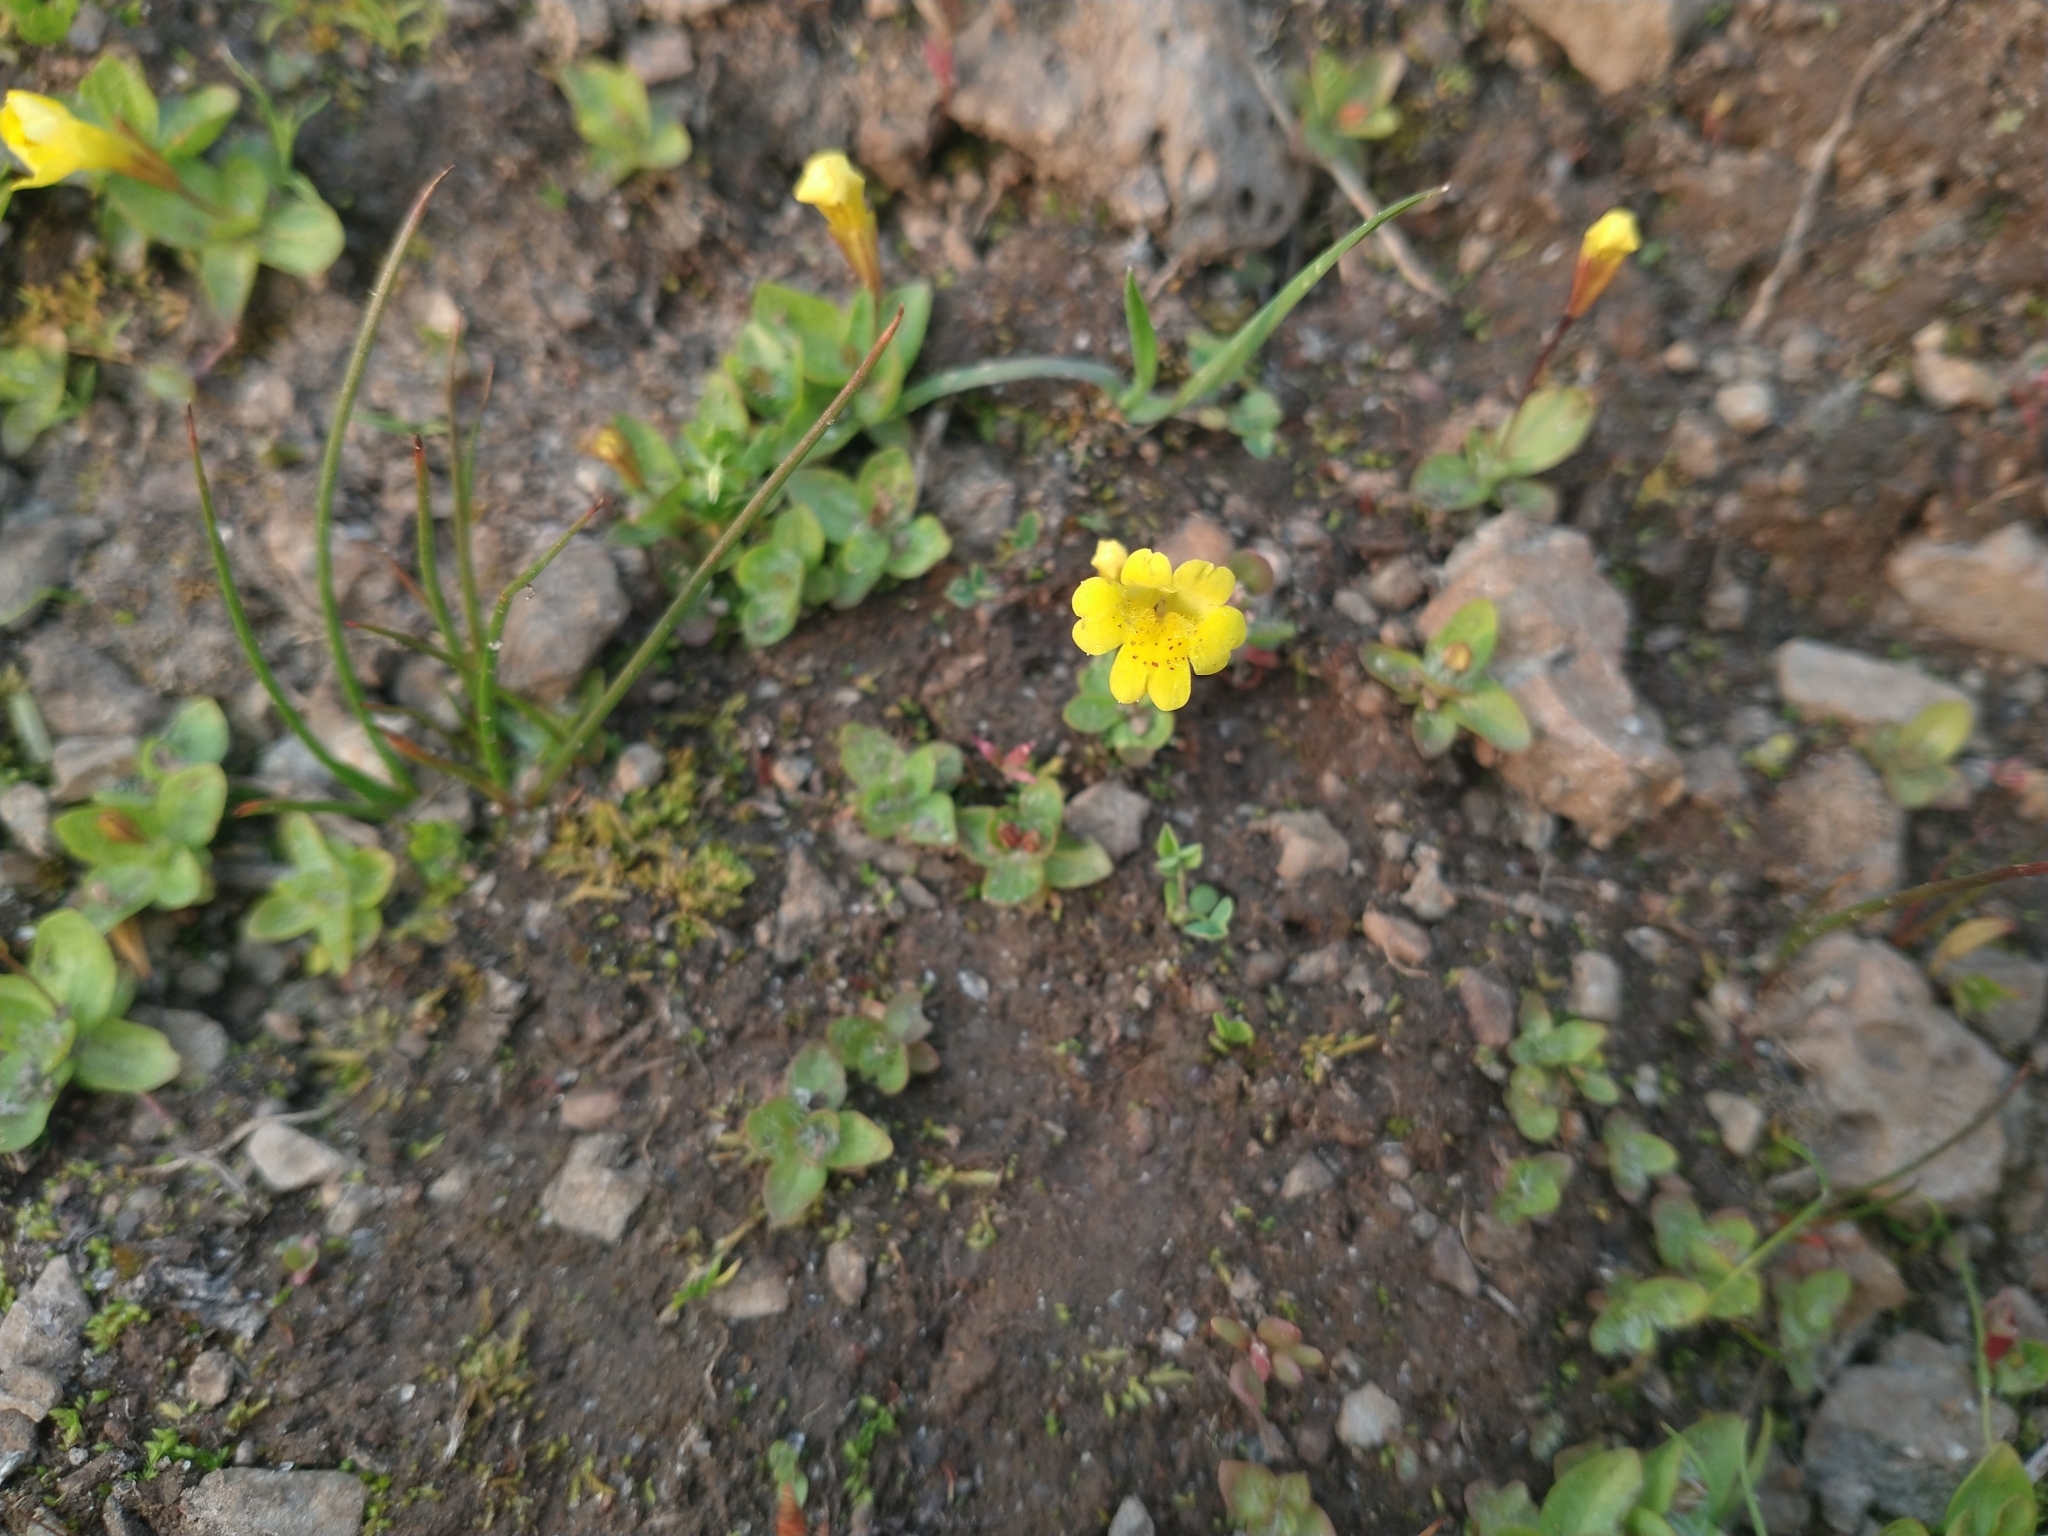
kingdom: Plantae
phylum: Tracheophyta
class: Magnoliopsida
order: Lamiales
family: Phrymaceae
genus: Erythranthe
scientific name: Erythranthe primuloides
